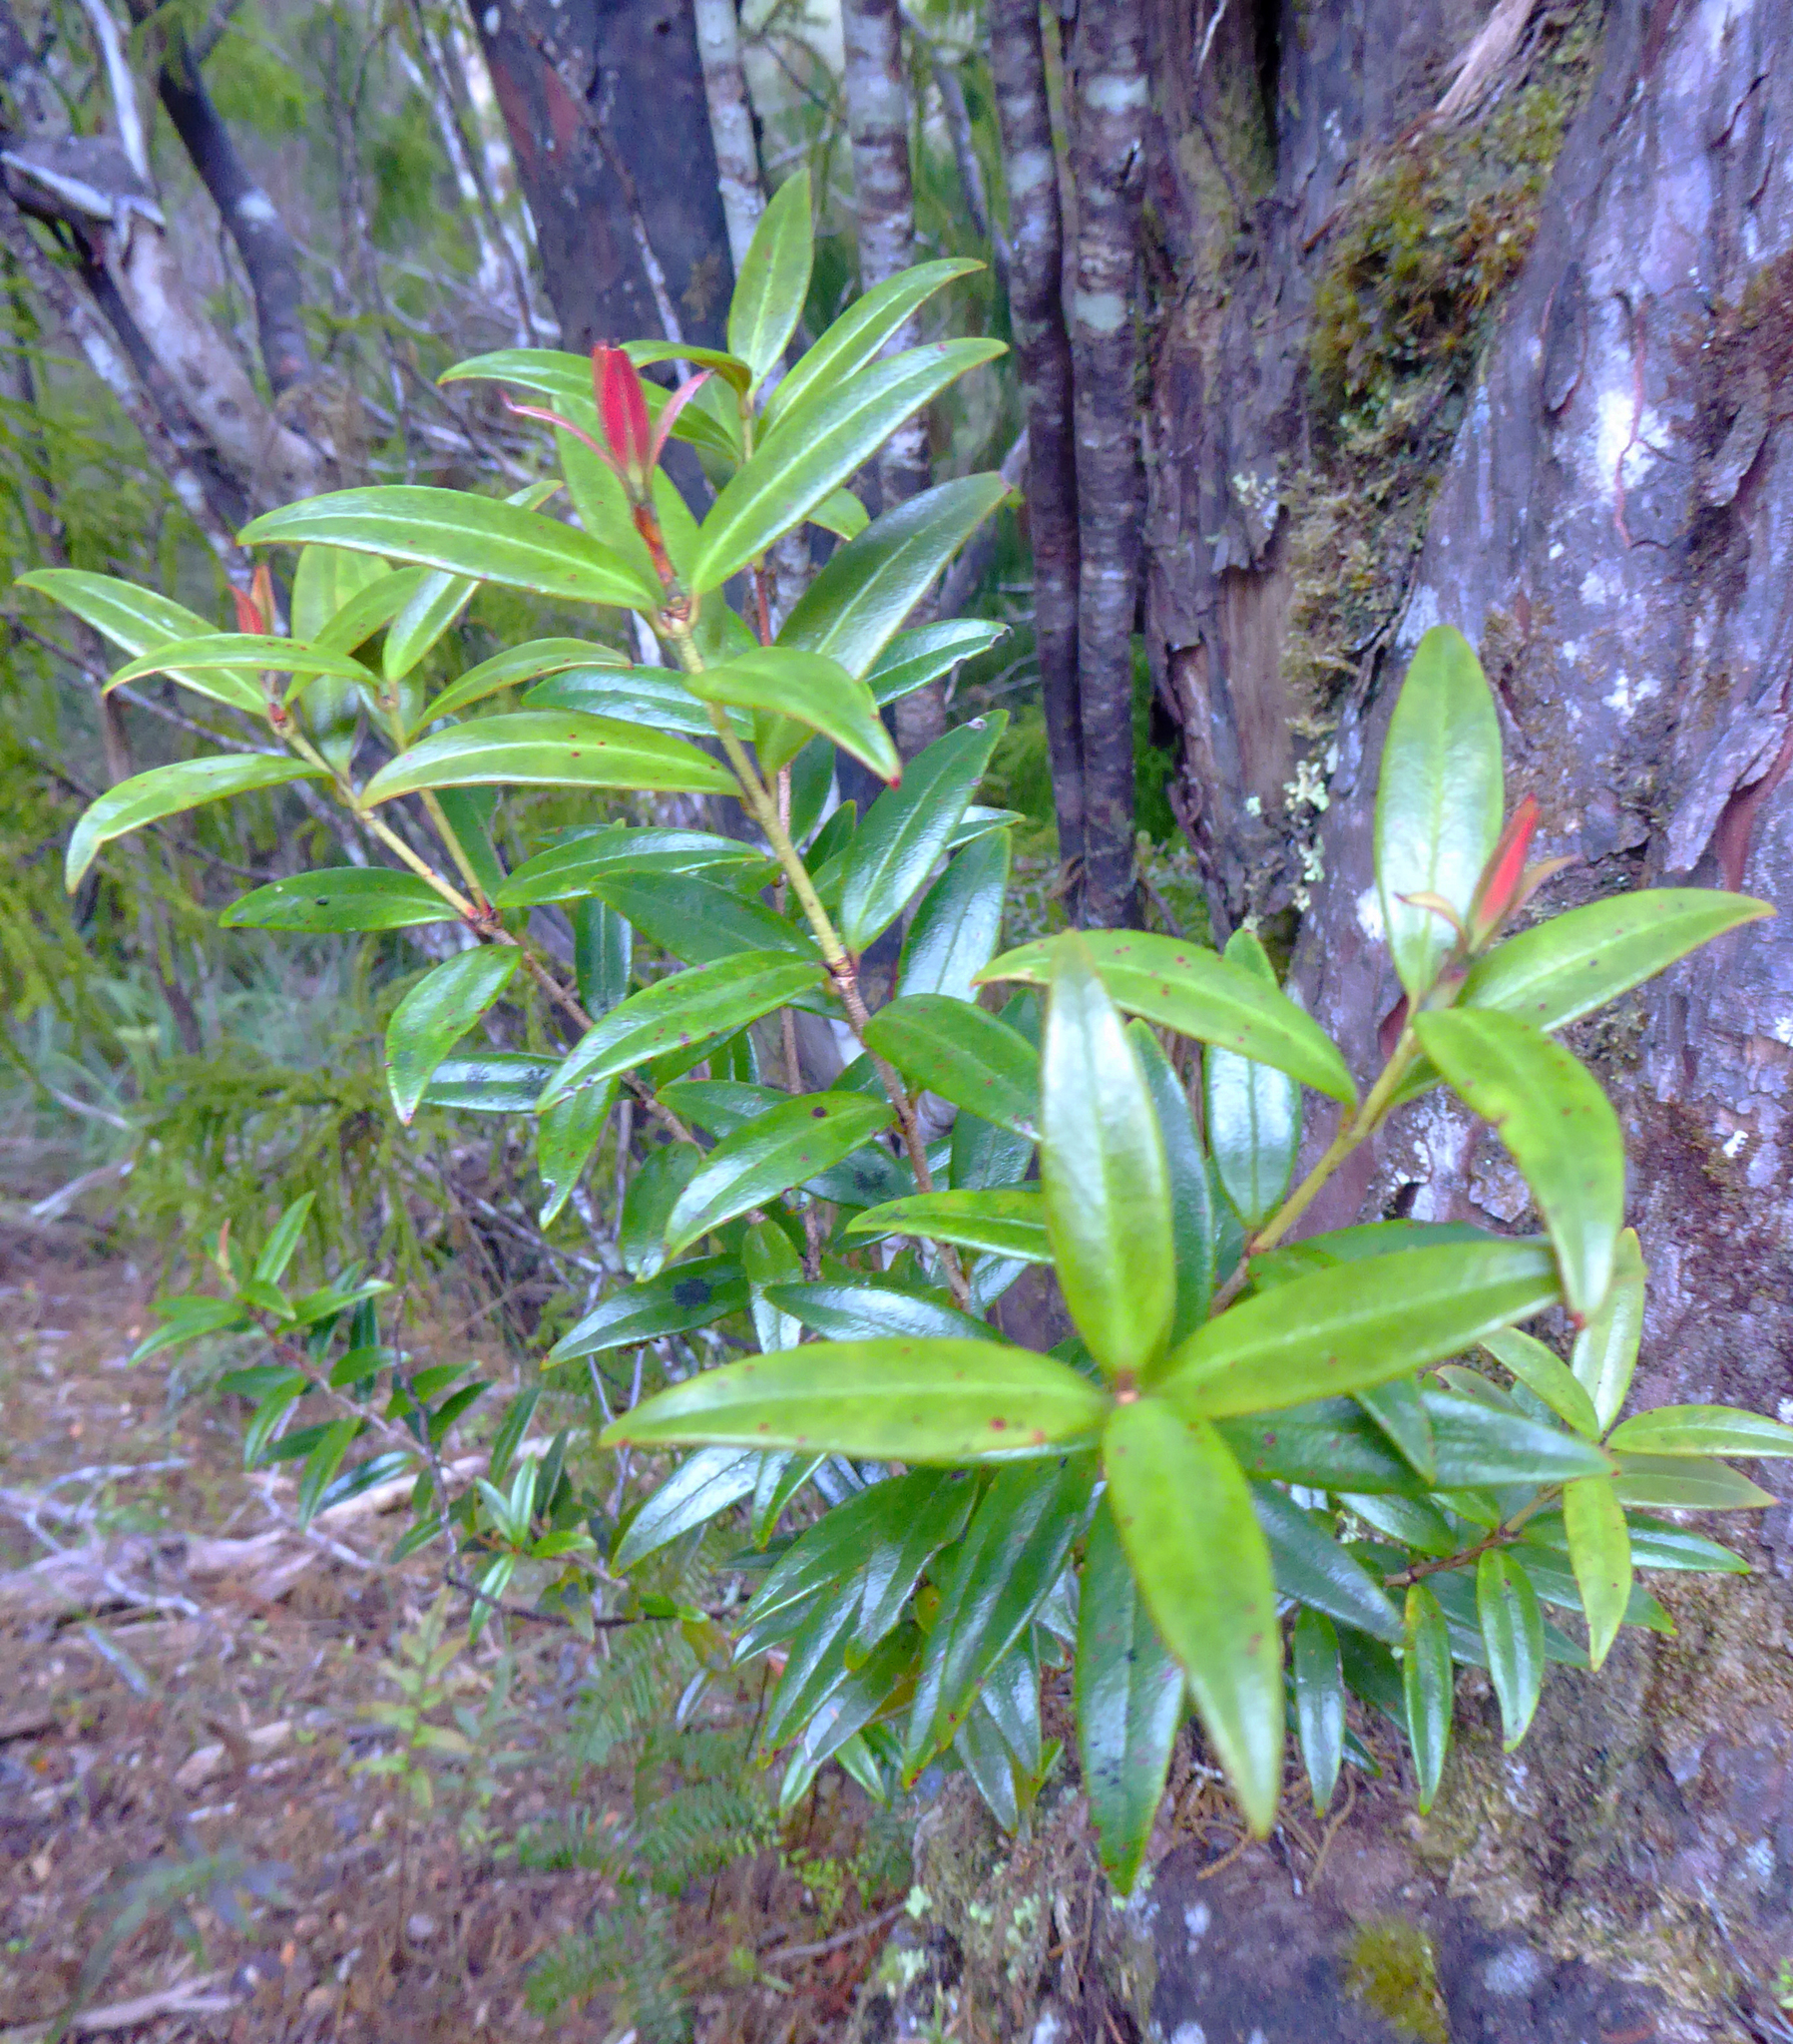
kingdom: Plantae
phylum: Tracheophyta
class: Magnoliopsida
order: Myrtales
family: Myrtaceae
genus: Metrosideros
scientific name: Metrosideros umbellata
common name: Southern rata
